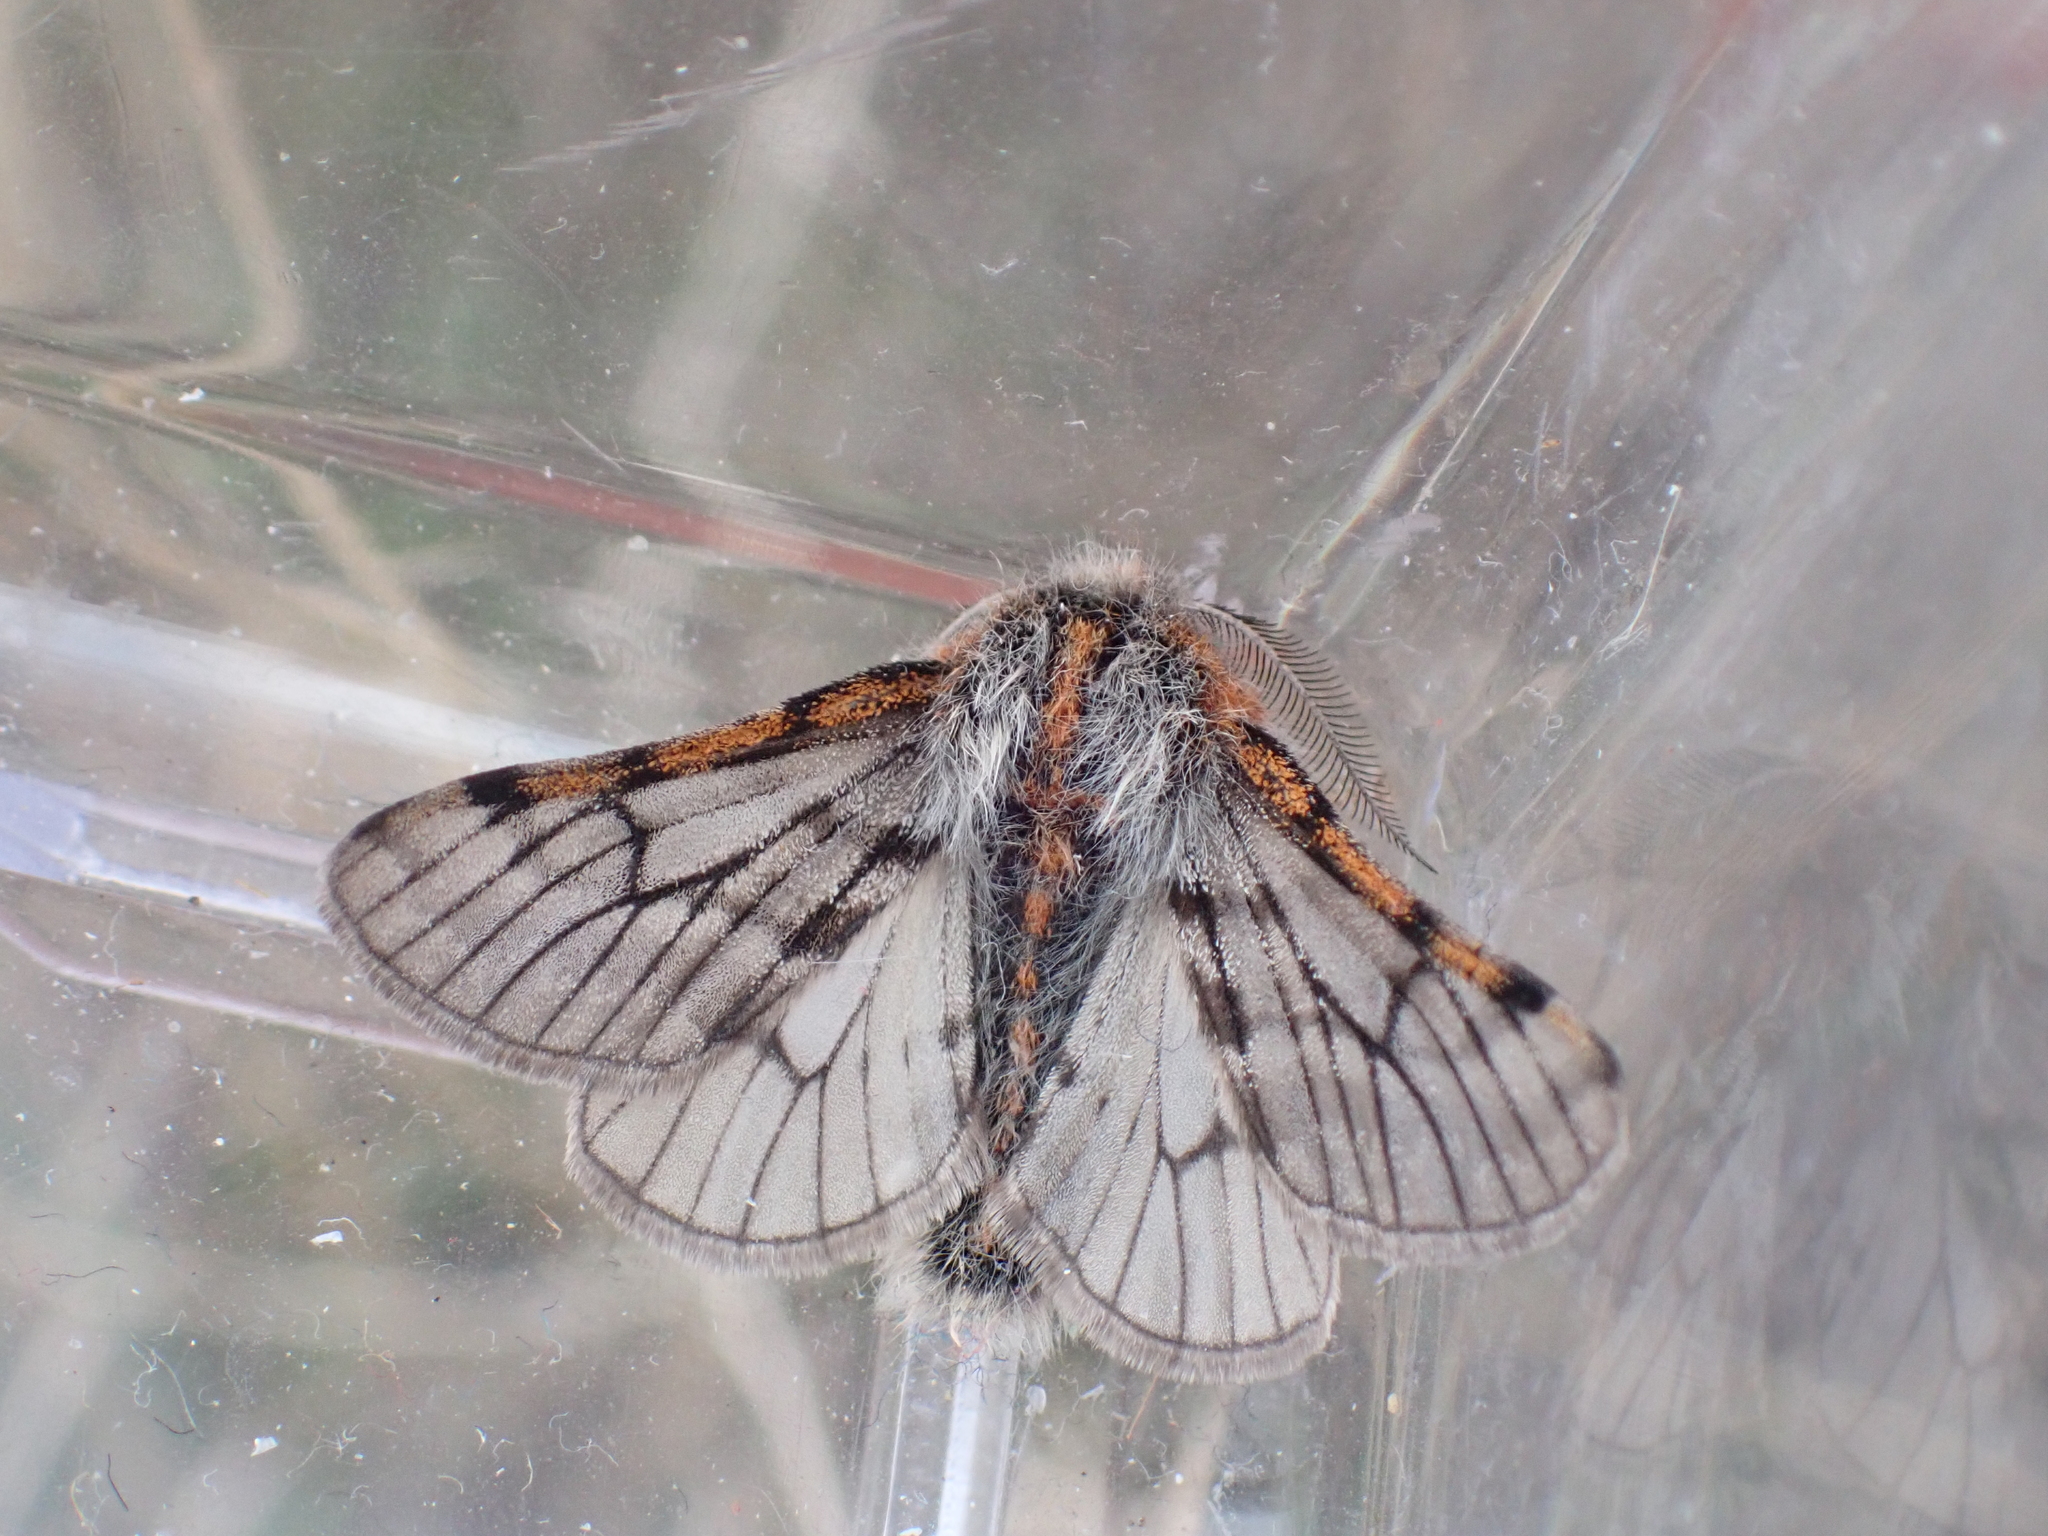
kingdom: Animalia
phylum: Arthropoda
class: Insecta
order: Lepidoptera
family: Geometridae
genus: Lycia
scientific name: Lycia rachelae
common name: Twilight moth
